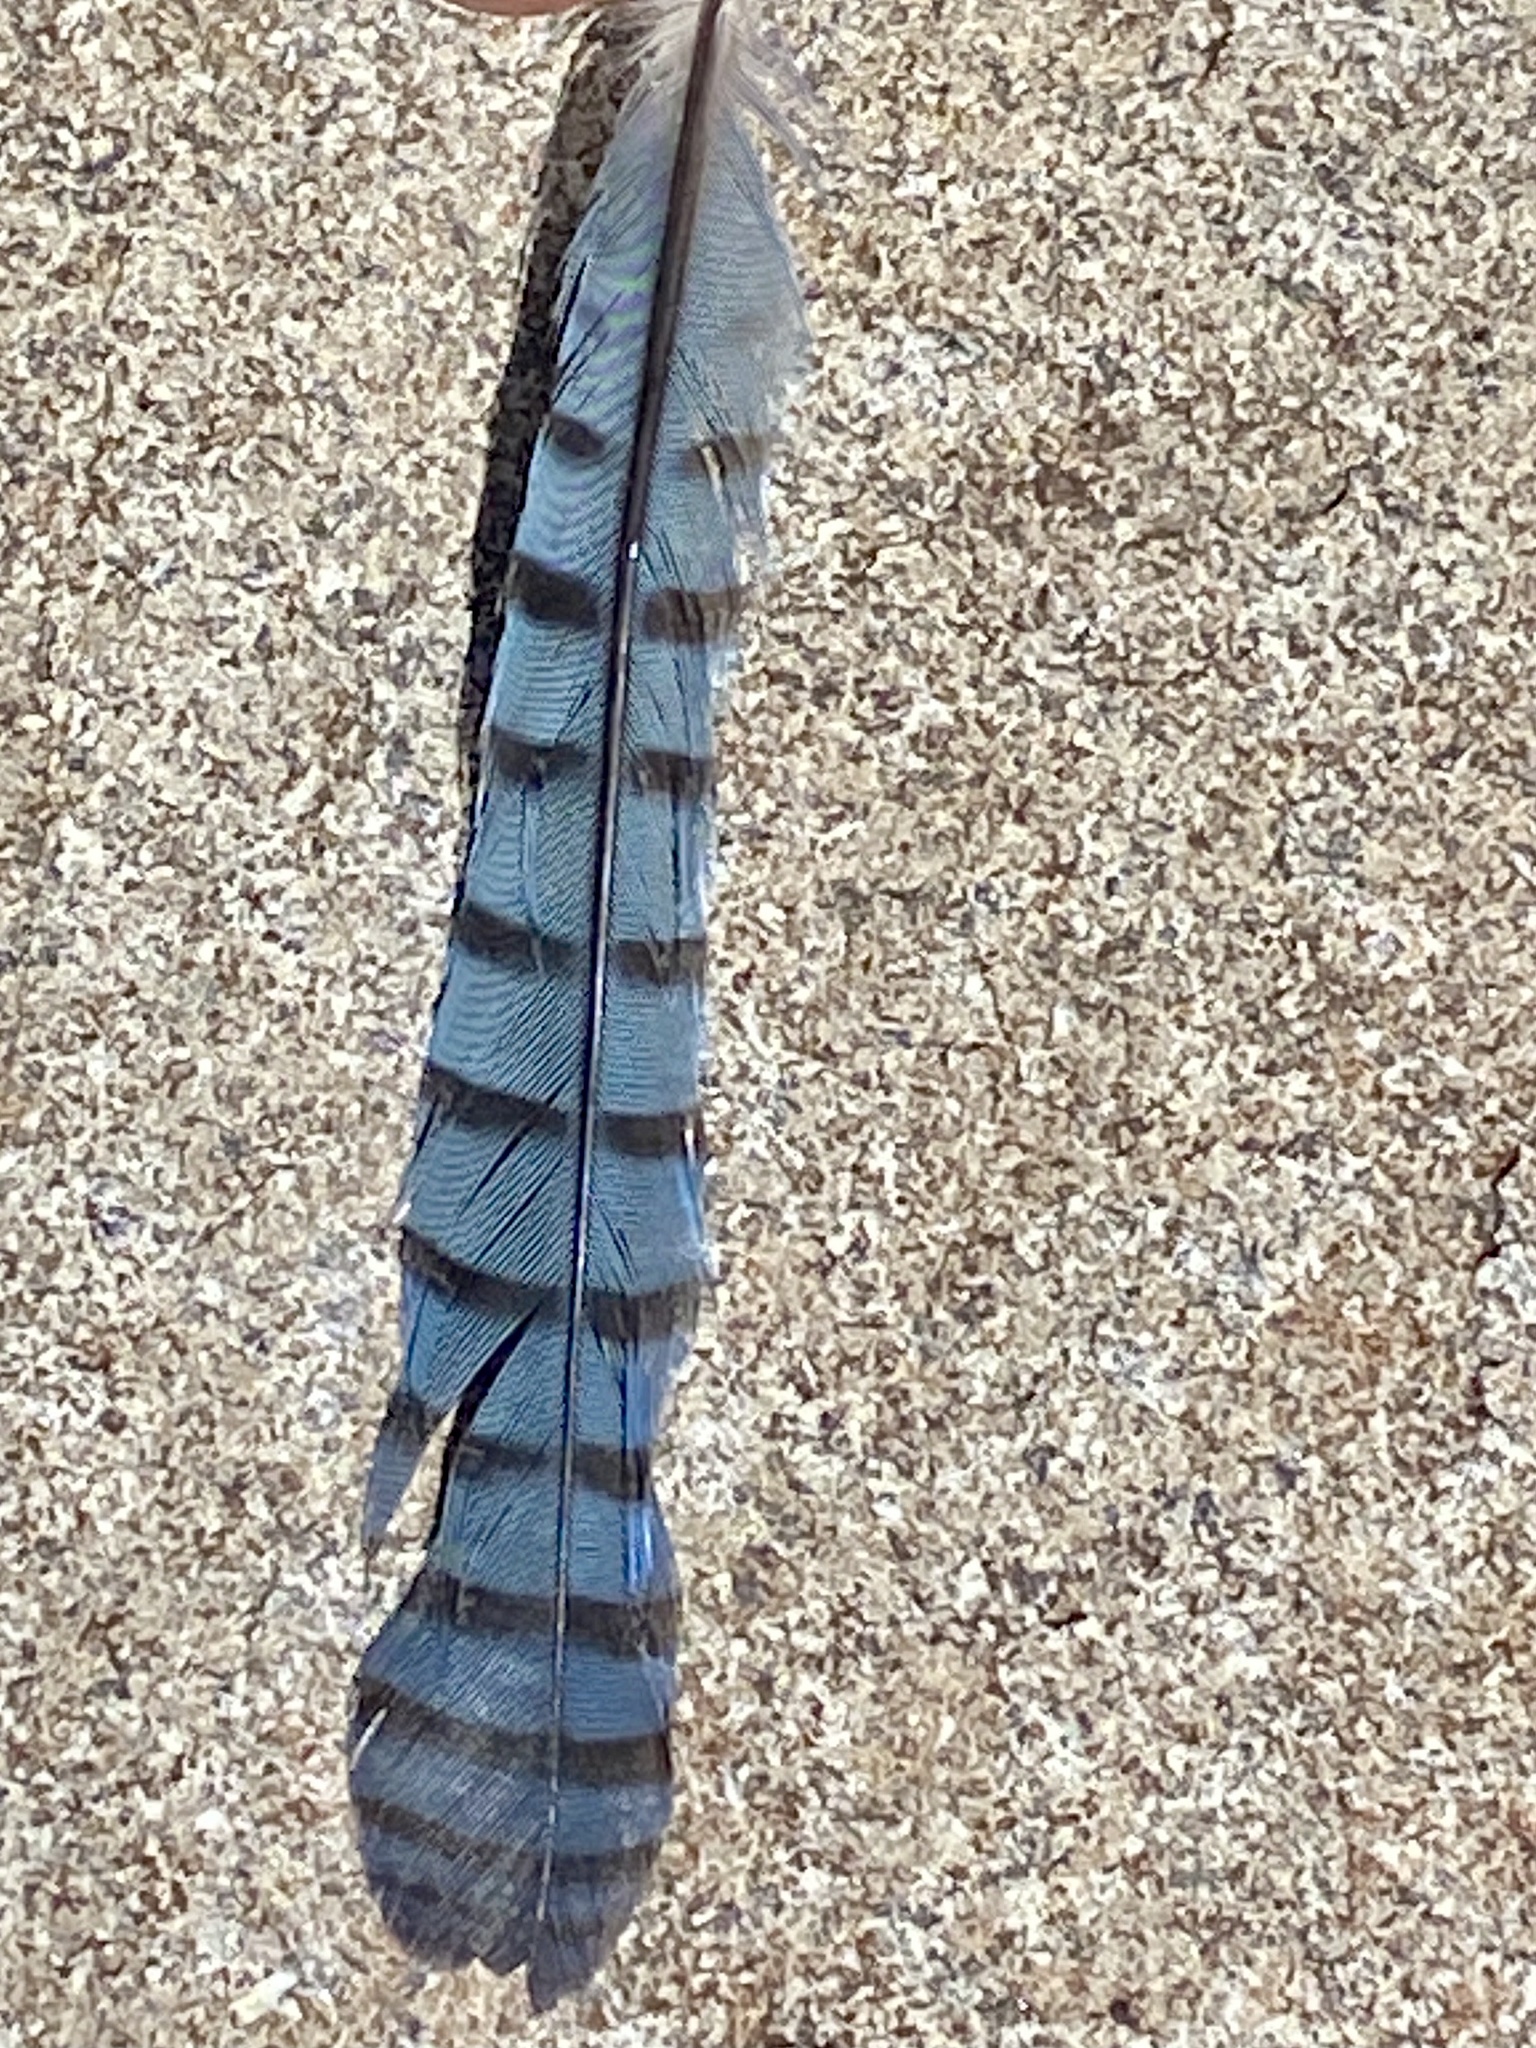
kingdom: Animalia
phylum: Chordata
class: Aves
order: Passeriformes
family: Corvidae
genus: Cyanocitta
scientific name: Cyanocitta cristata
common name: Blue jay
